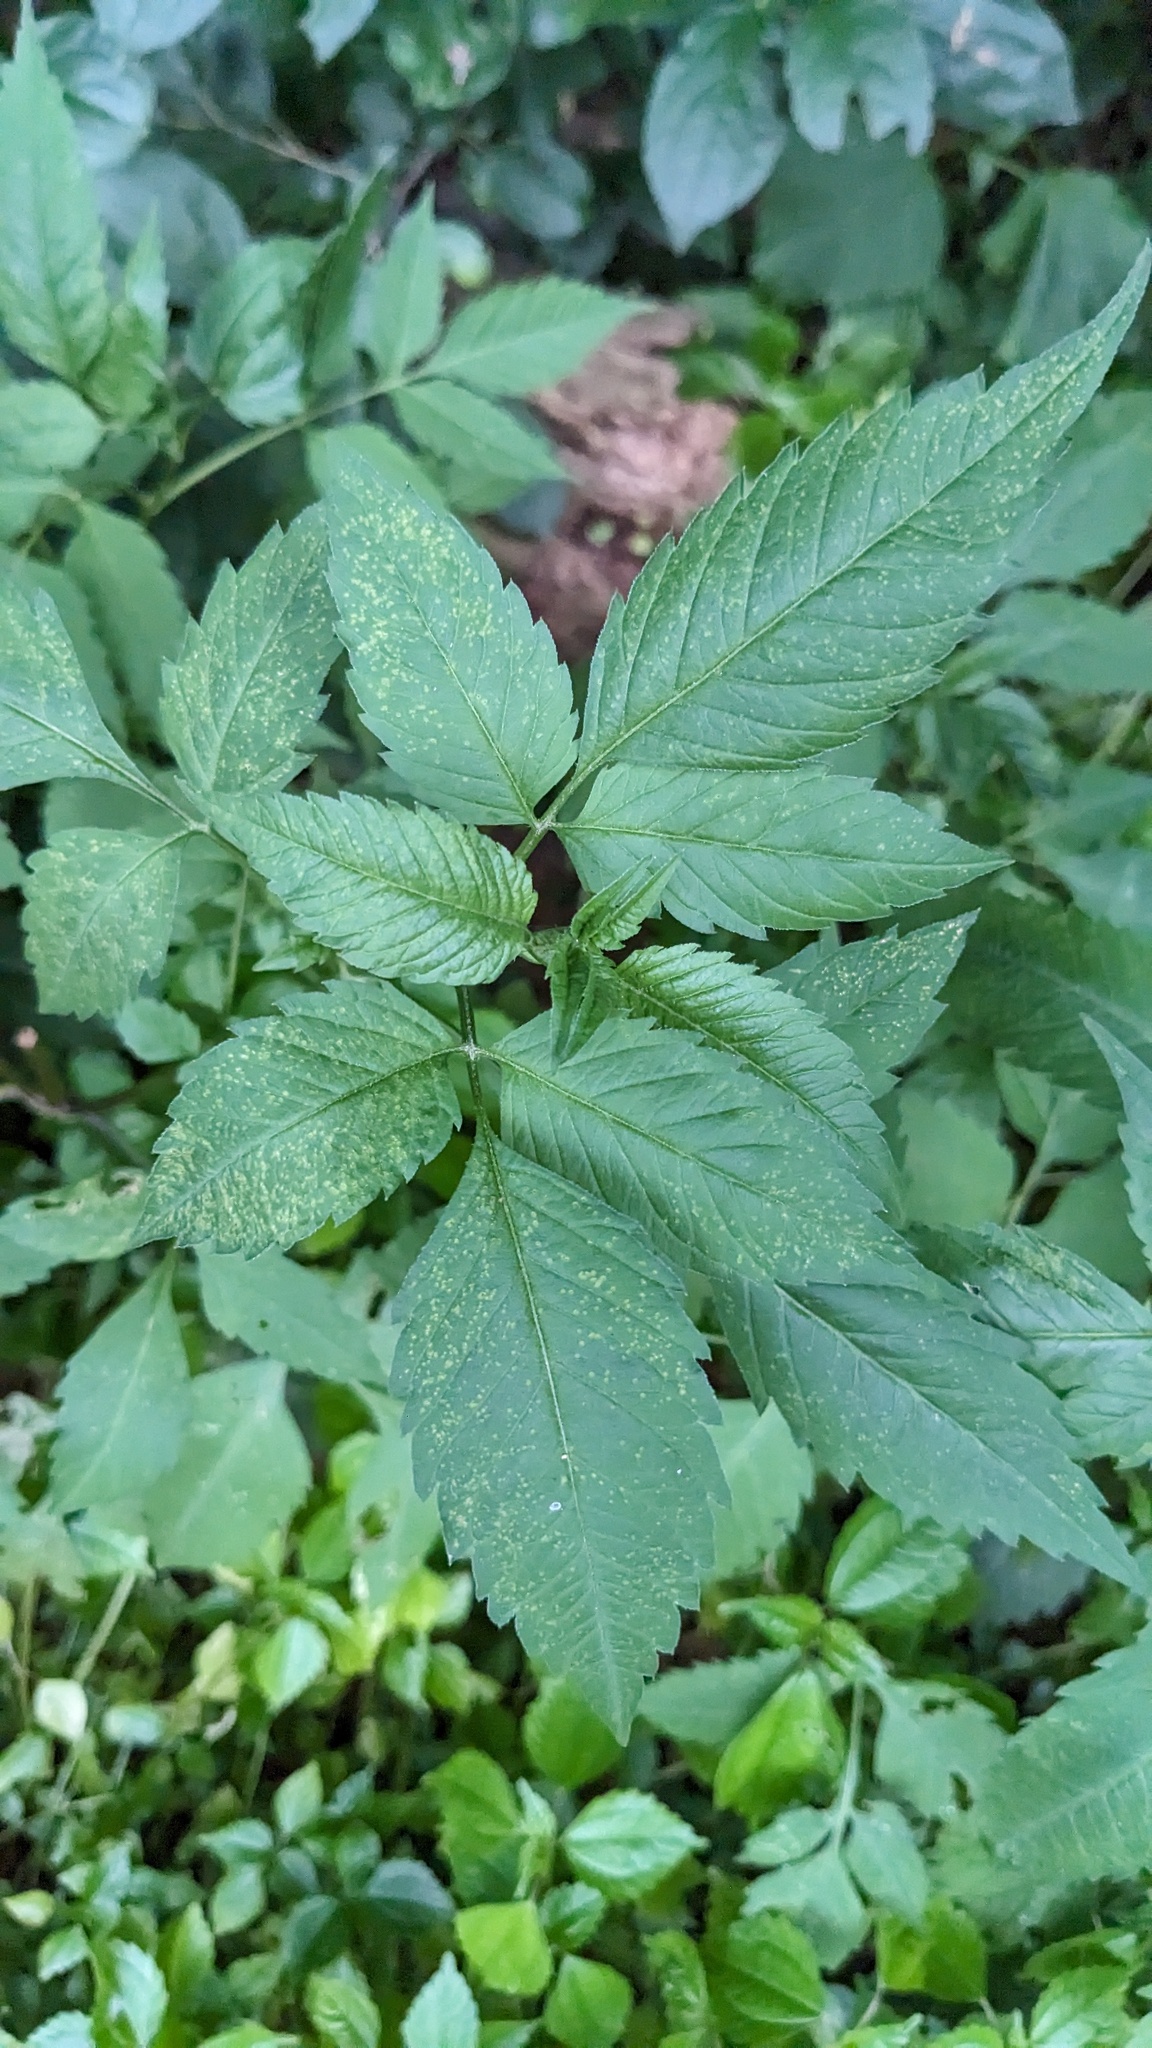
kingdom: Plantae
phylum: Tracheophyta
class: Magnoliopsida
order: Asterales
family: Asteraceae
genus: Bidens
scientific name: Bidens frondosa
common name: Beggarticks
